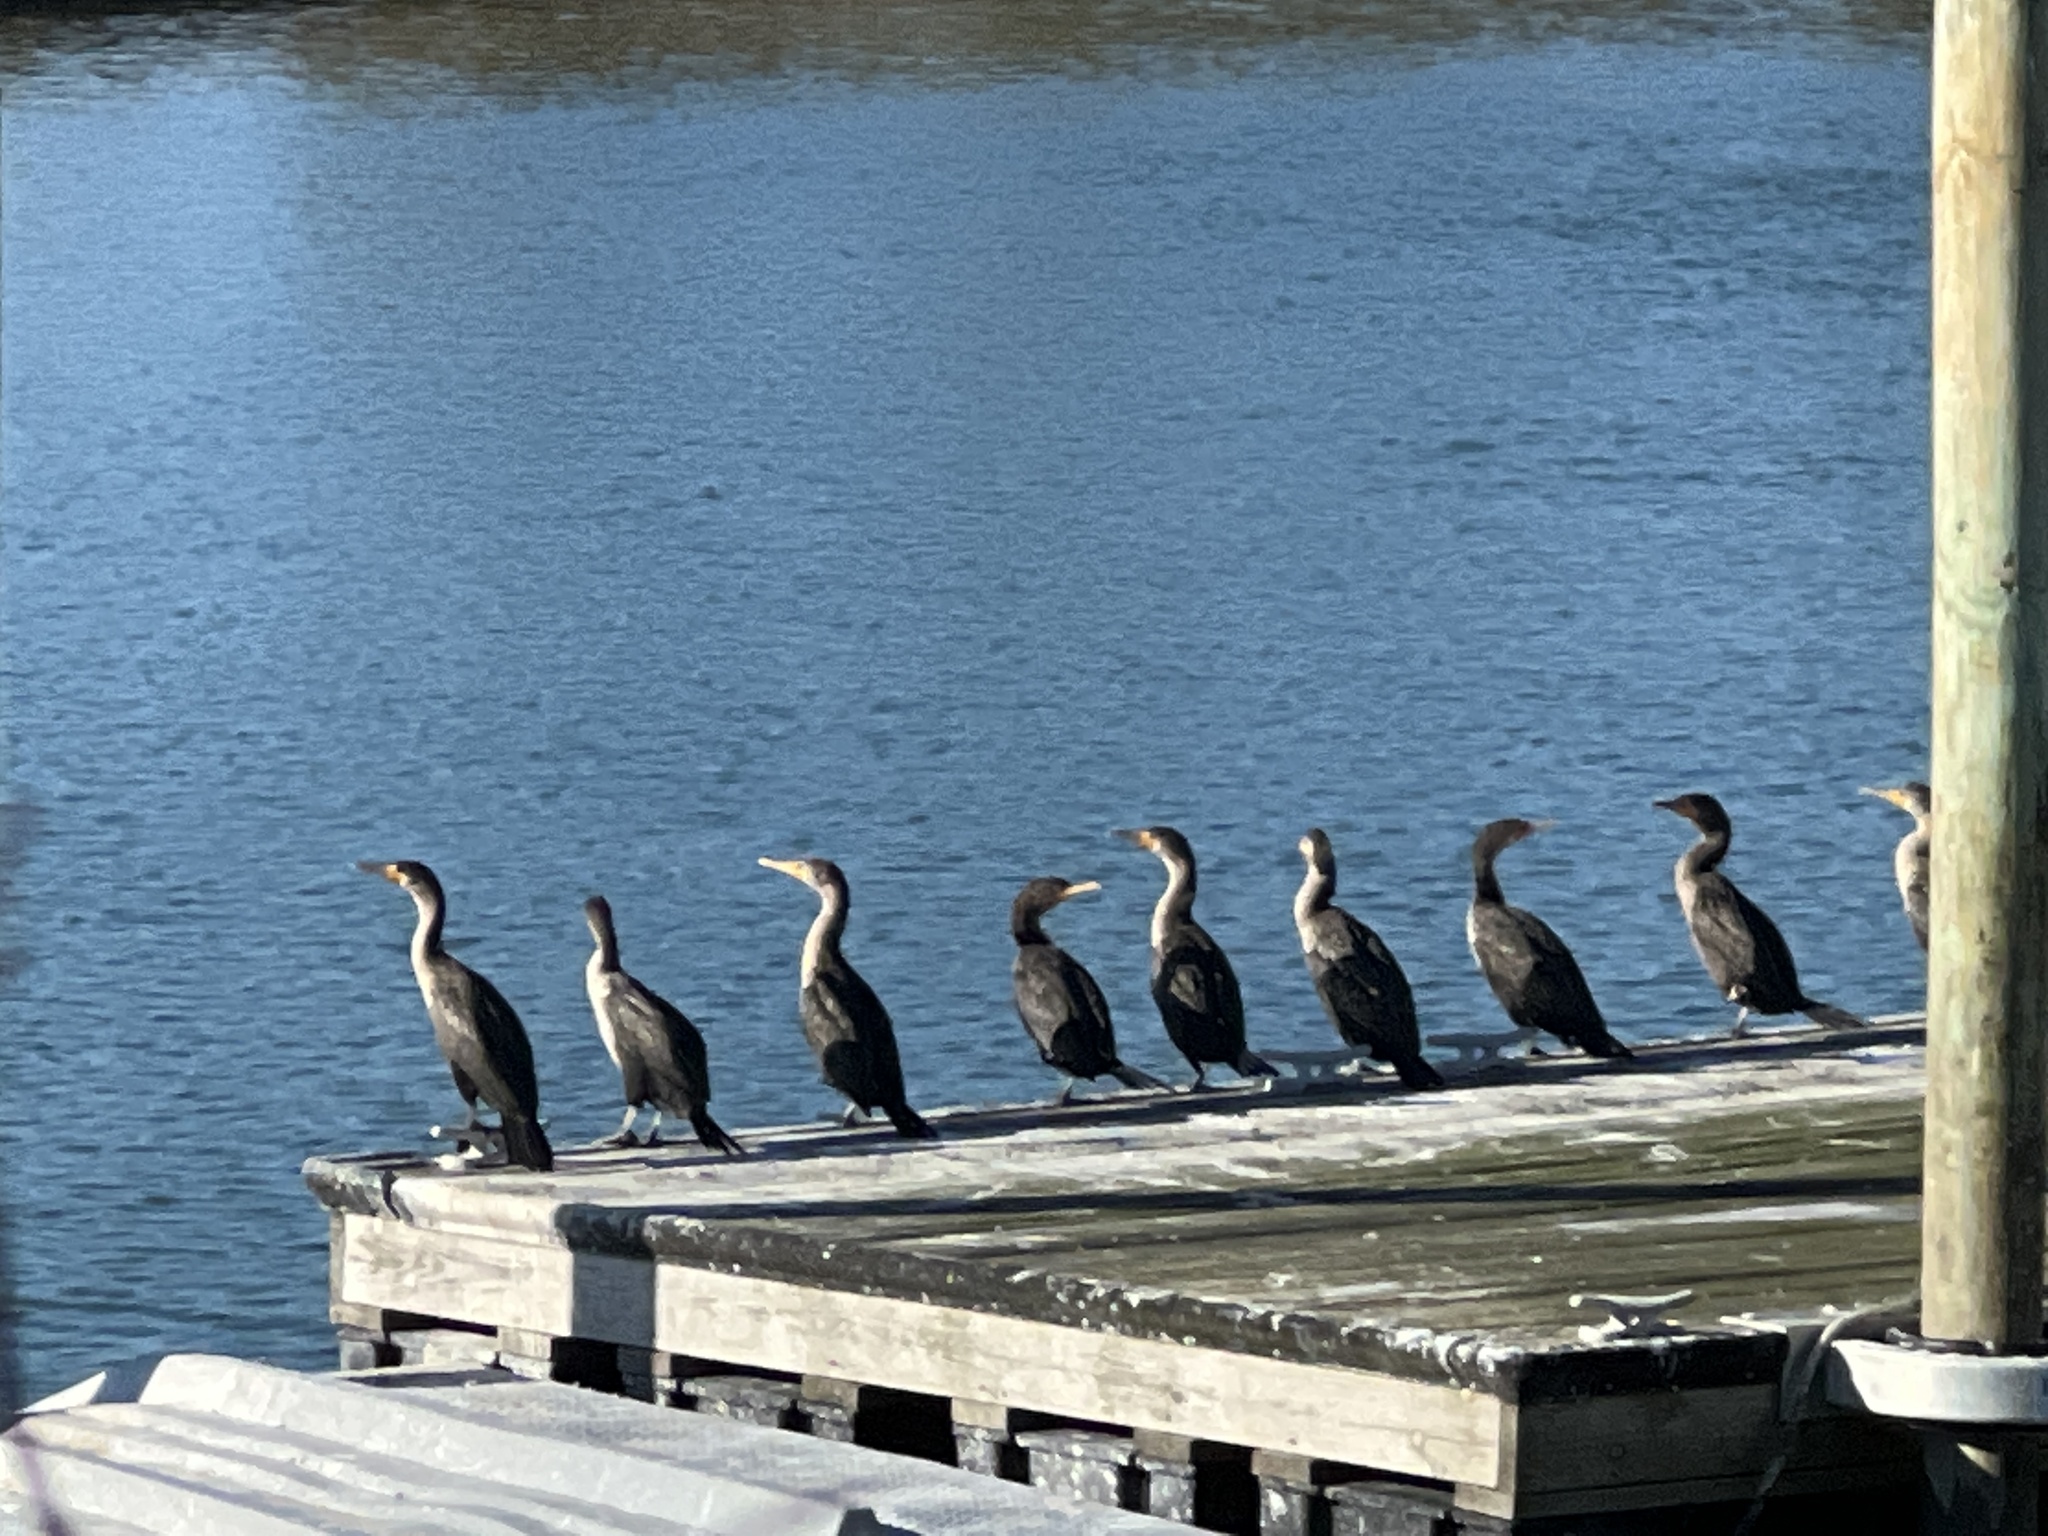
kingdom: Animalia
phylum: Chordata
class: Aves
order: Suliformes
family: Phalacrocoracidae
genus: Phalacrocorax
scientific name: Phalacrocorax auritus
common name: Double-crested cormorant
